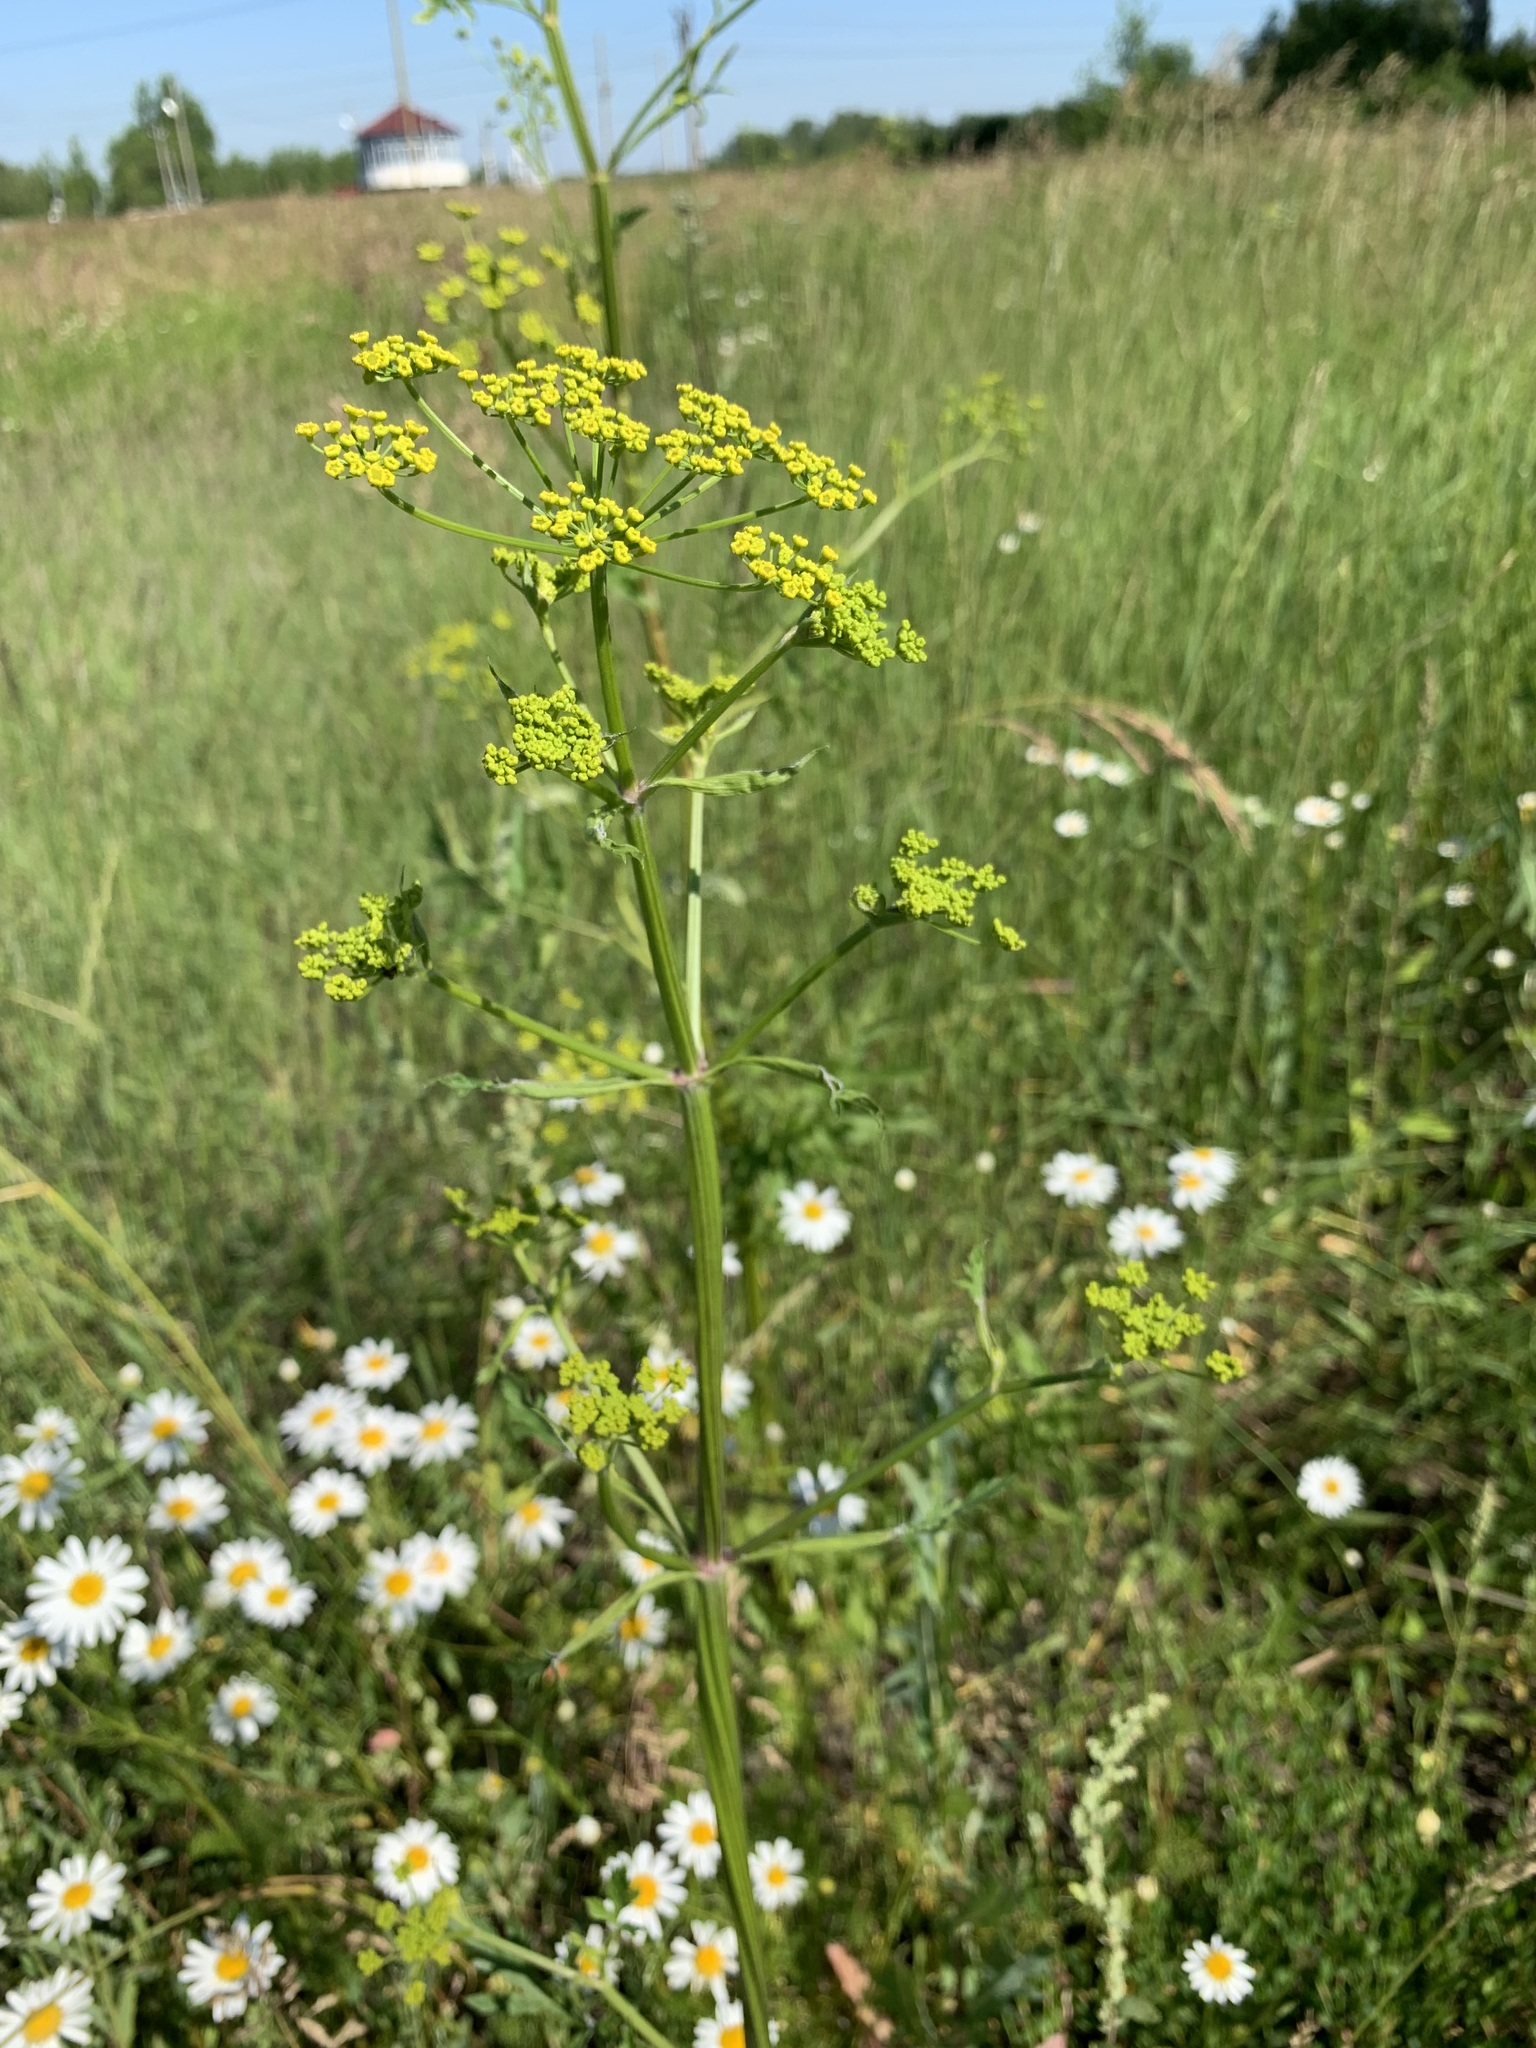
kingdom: Plantae
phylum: Tracheophyta
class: Magnoliopsida
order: Apiales
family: Apiaceae
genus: Pastinaca
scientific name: Pastinaca sativa
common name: Wild parsnip
